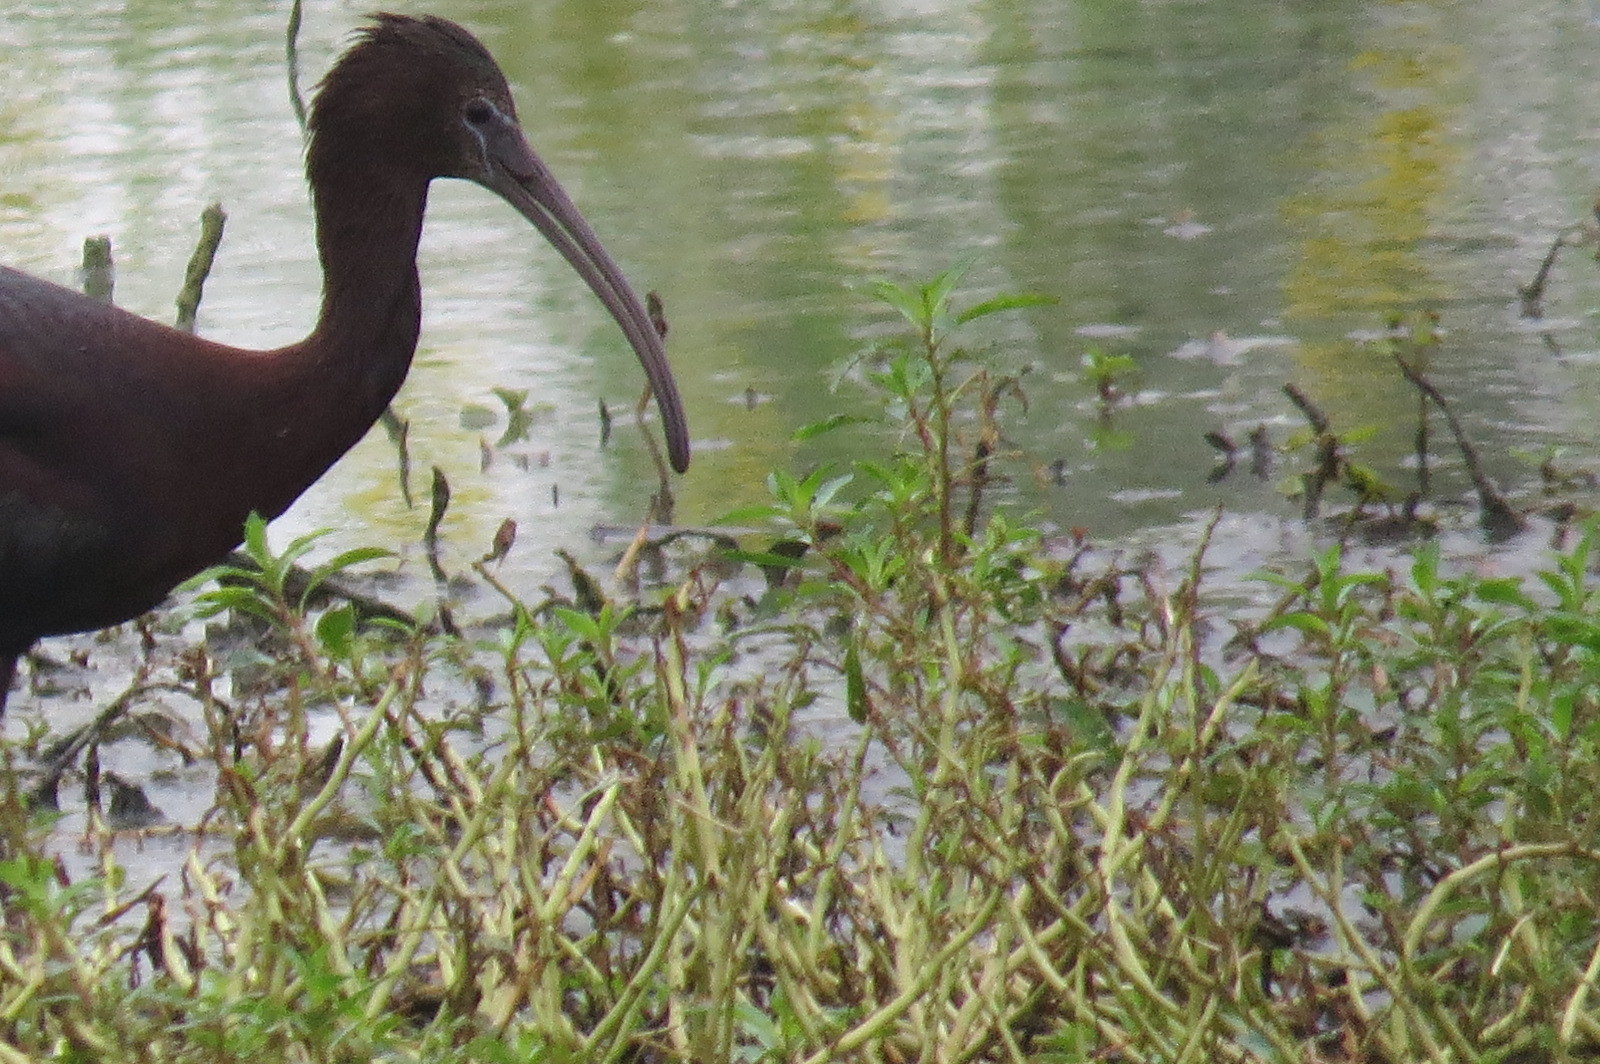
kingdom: Animalia
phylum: Chordata
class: Aves
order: Pelecaniformes
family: Threskiornithidae
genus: Plegadis
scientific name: Plegadis falcinellus
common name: Glossy ibis
